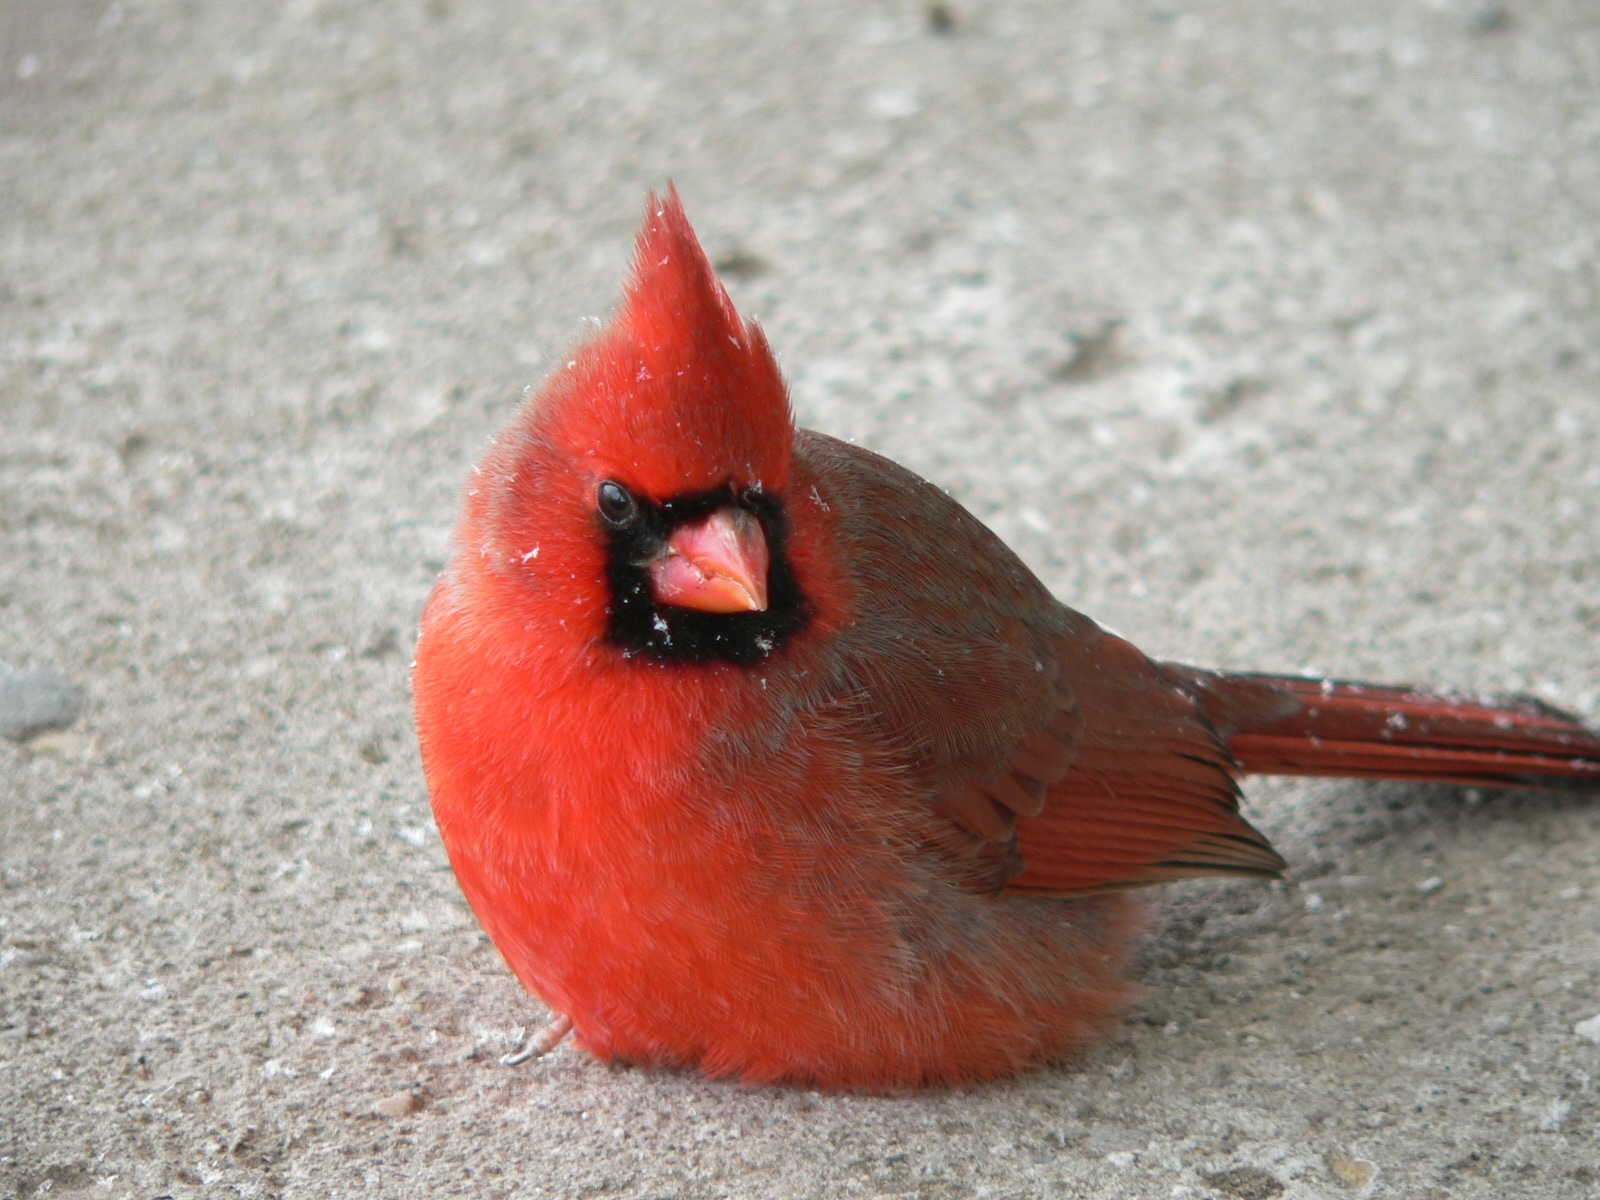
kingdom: Animalia
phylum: Chordata
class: Aves
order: Passeriformes
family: Cardinalidae
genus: Cardinalis
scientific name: Cardinalis cardinalis
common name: Northern cardinal
